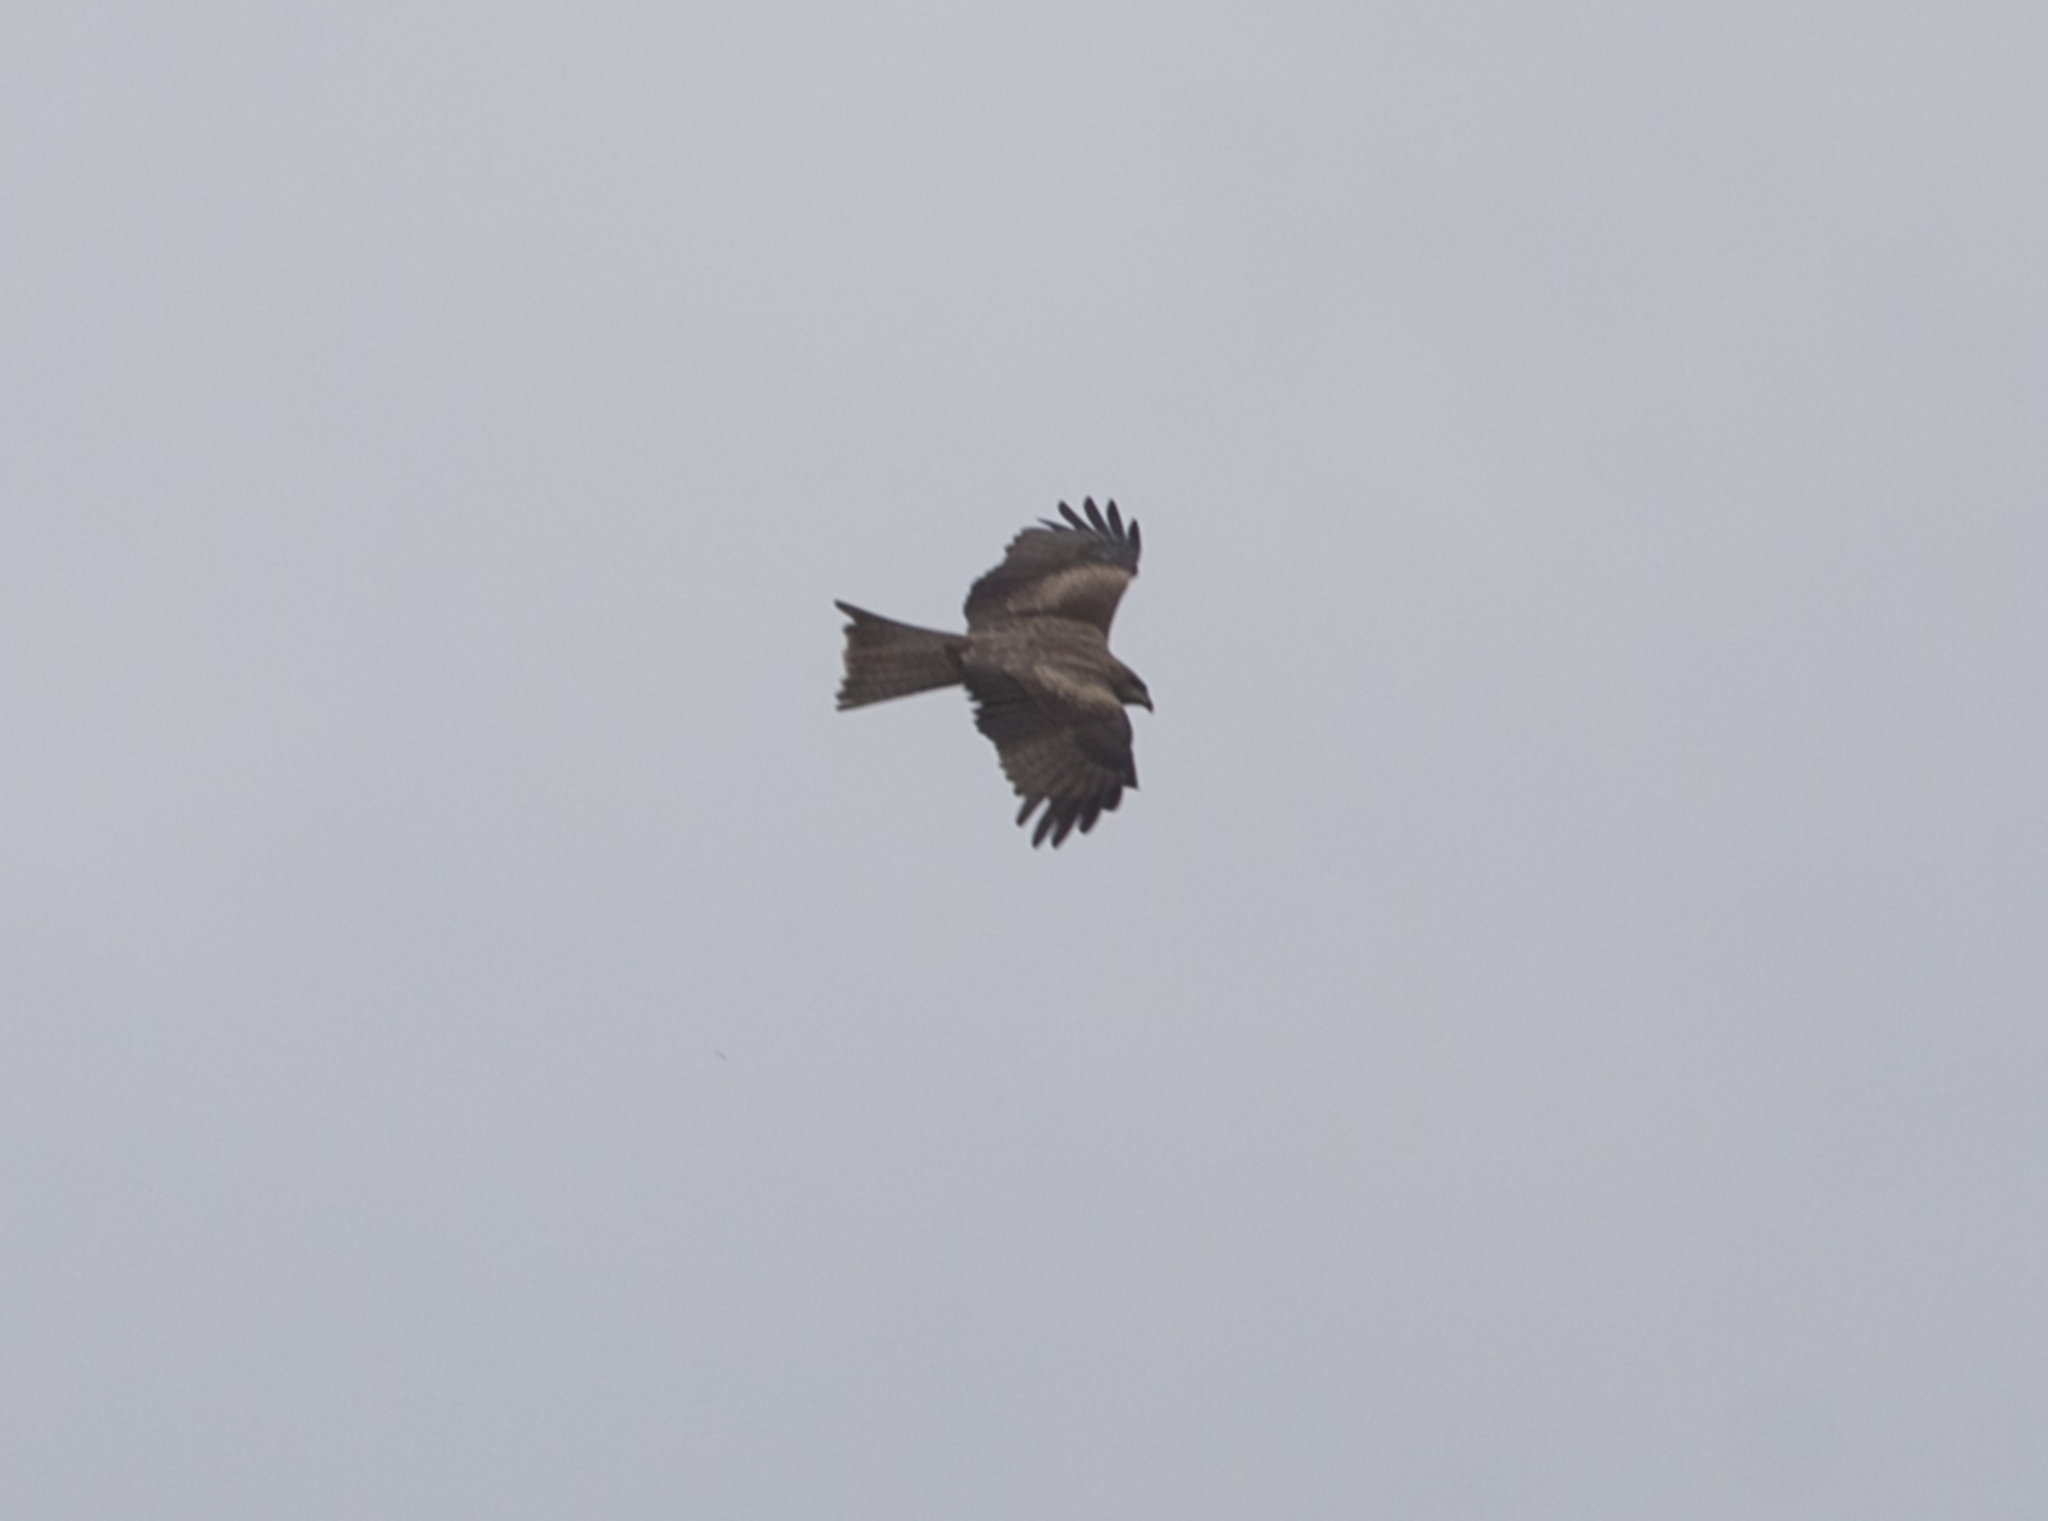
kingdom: Animalia
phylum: Chordata
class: Aves
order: Accipitriformes
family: Accipitridae
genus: Milvus
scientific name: Milvus migrans
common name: Black kite
